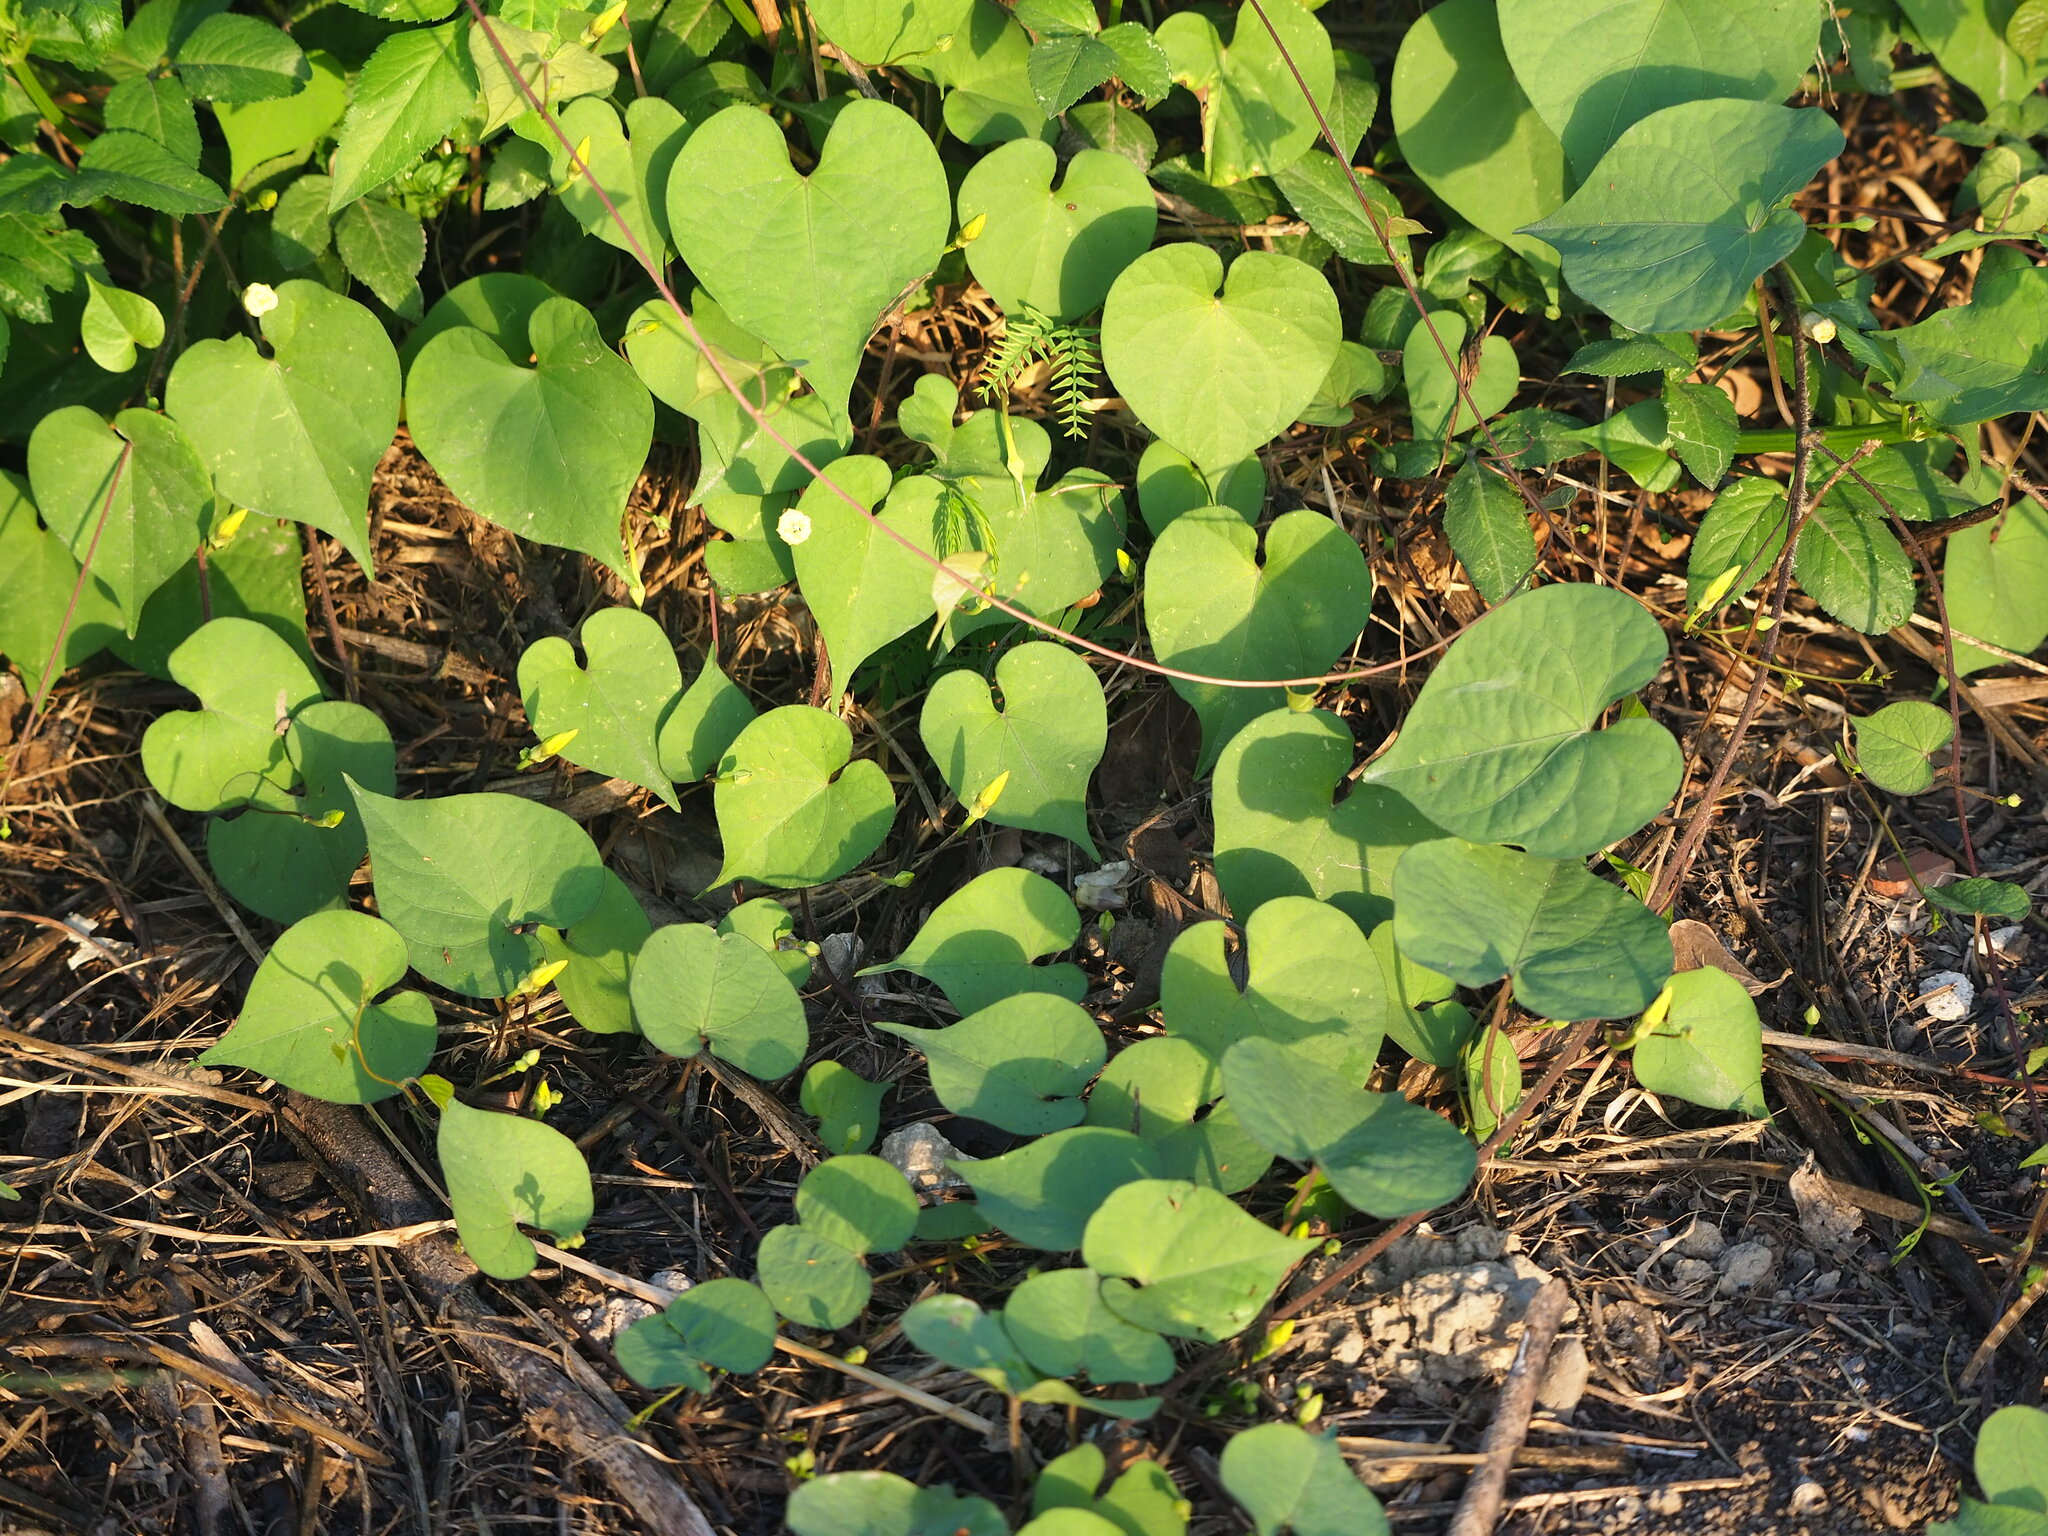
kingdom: Plantae
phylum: Tracheophyta
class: Magnoliopsida
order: Solanales
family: Convolvulaceae
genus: Ipomoea
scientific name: Ipomoea obscura
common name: Obscure morning-glory
